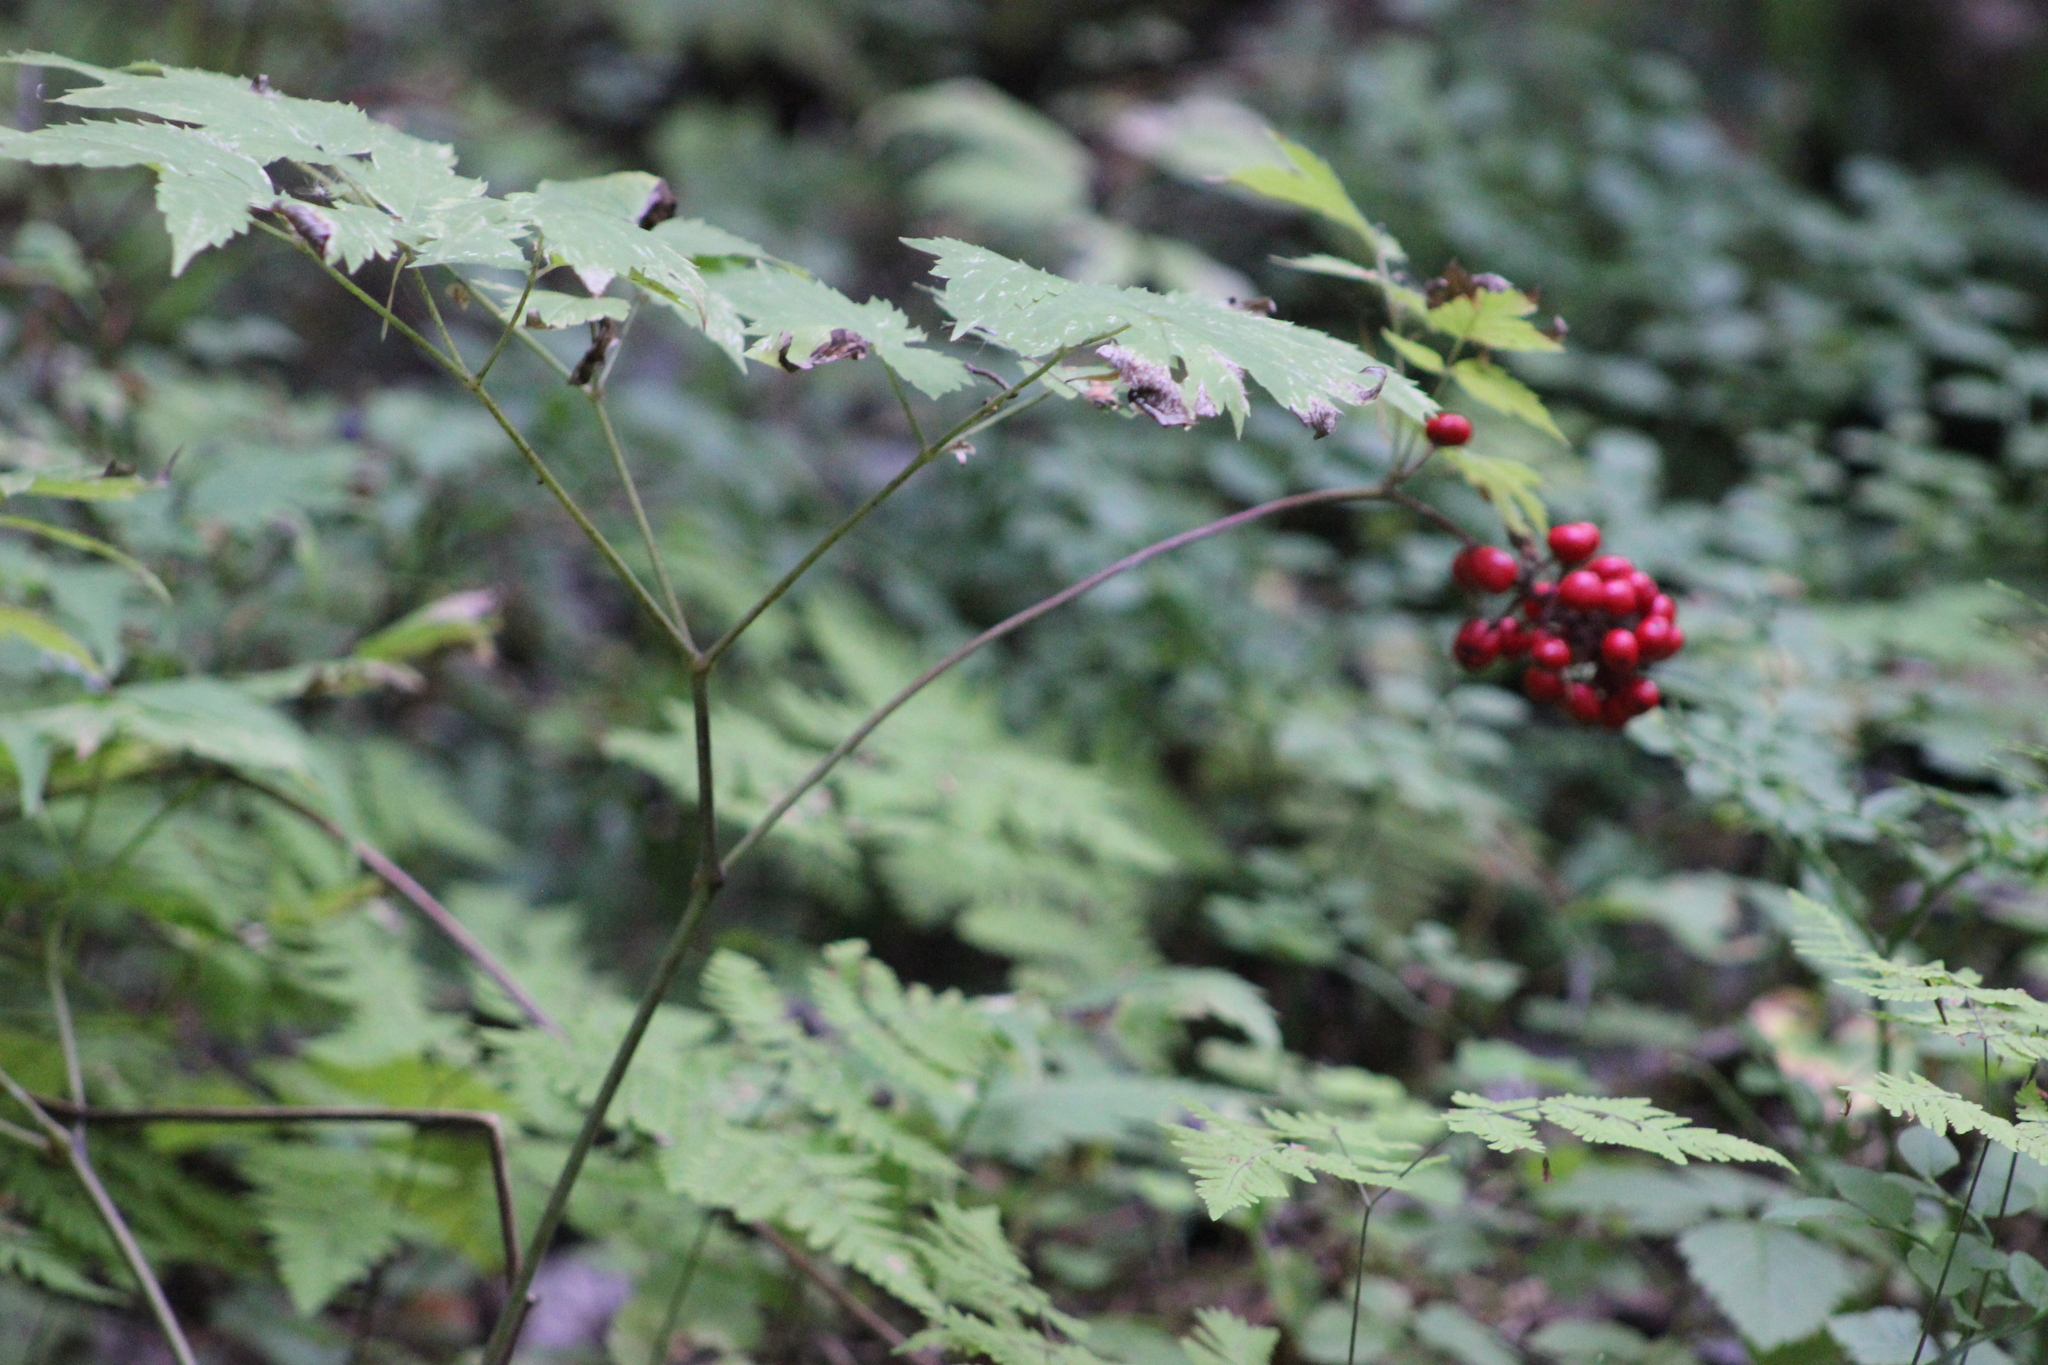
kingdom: Plantae
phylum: Tracheophyta
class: Magnoliopsida
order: Ranunculales
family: Ranunculaceae
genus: Actaea
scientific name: Actaea erythrocarpa
